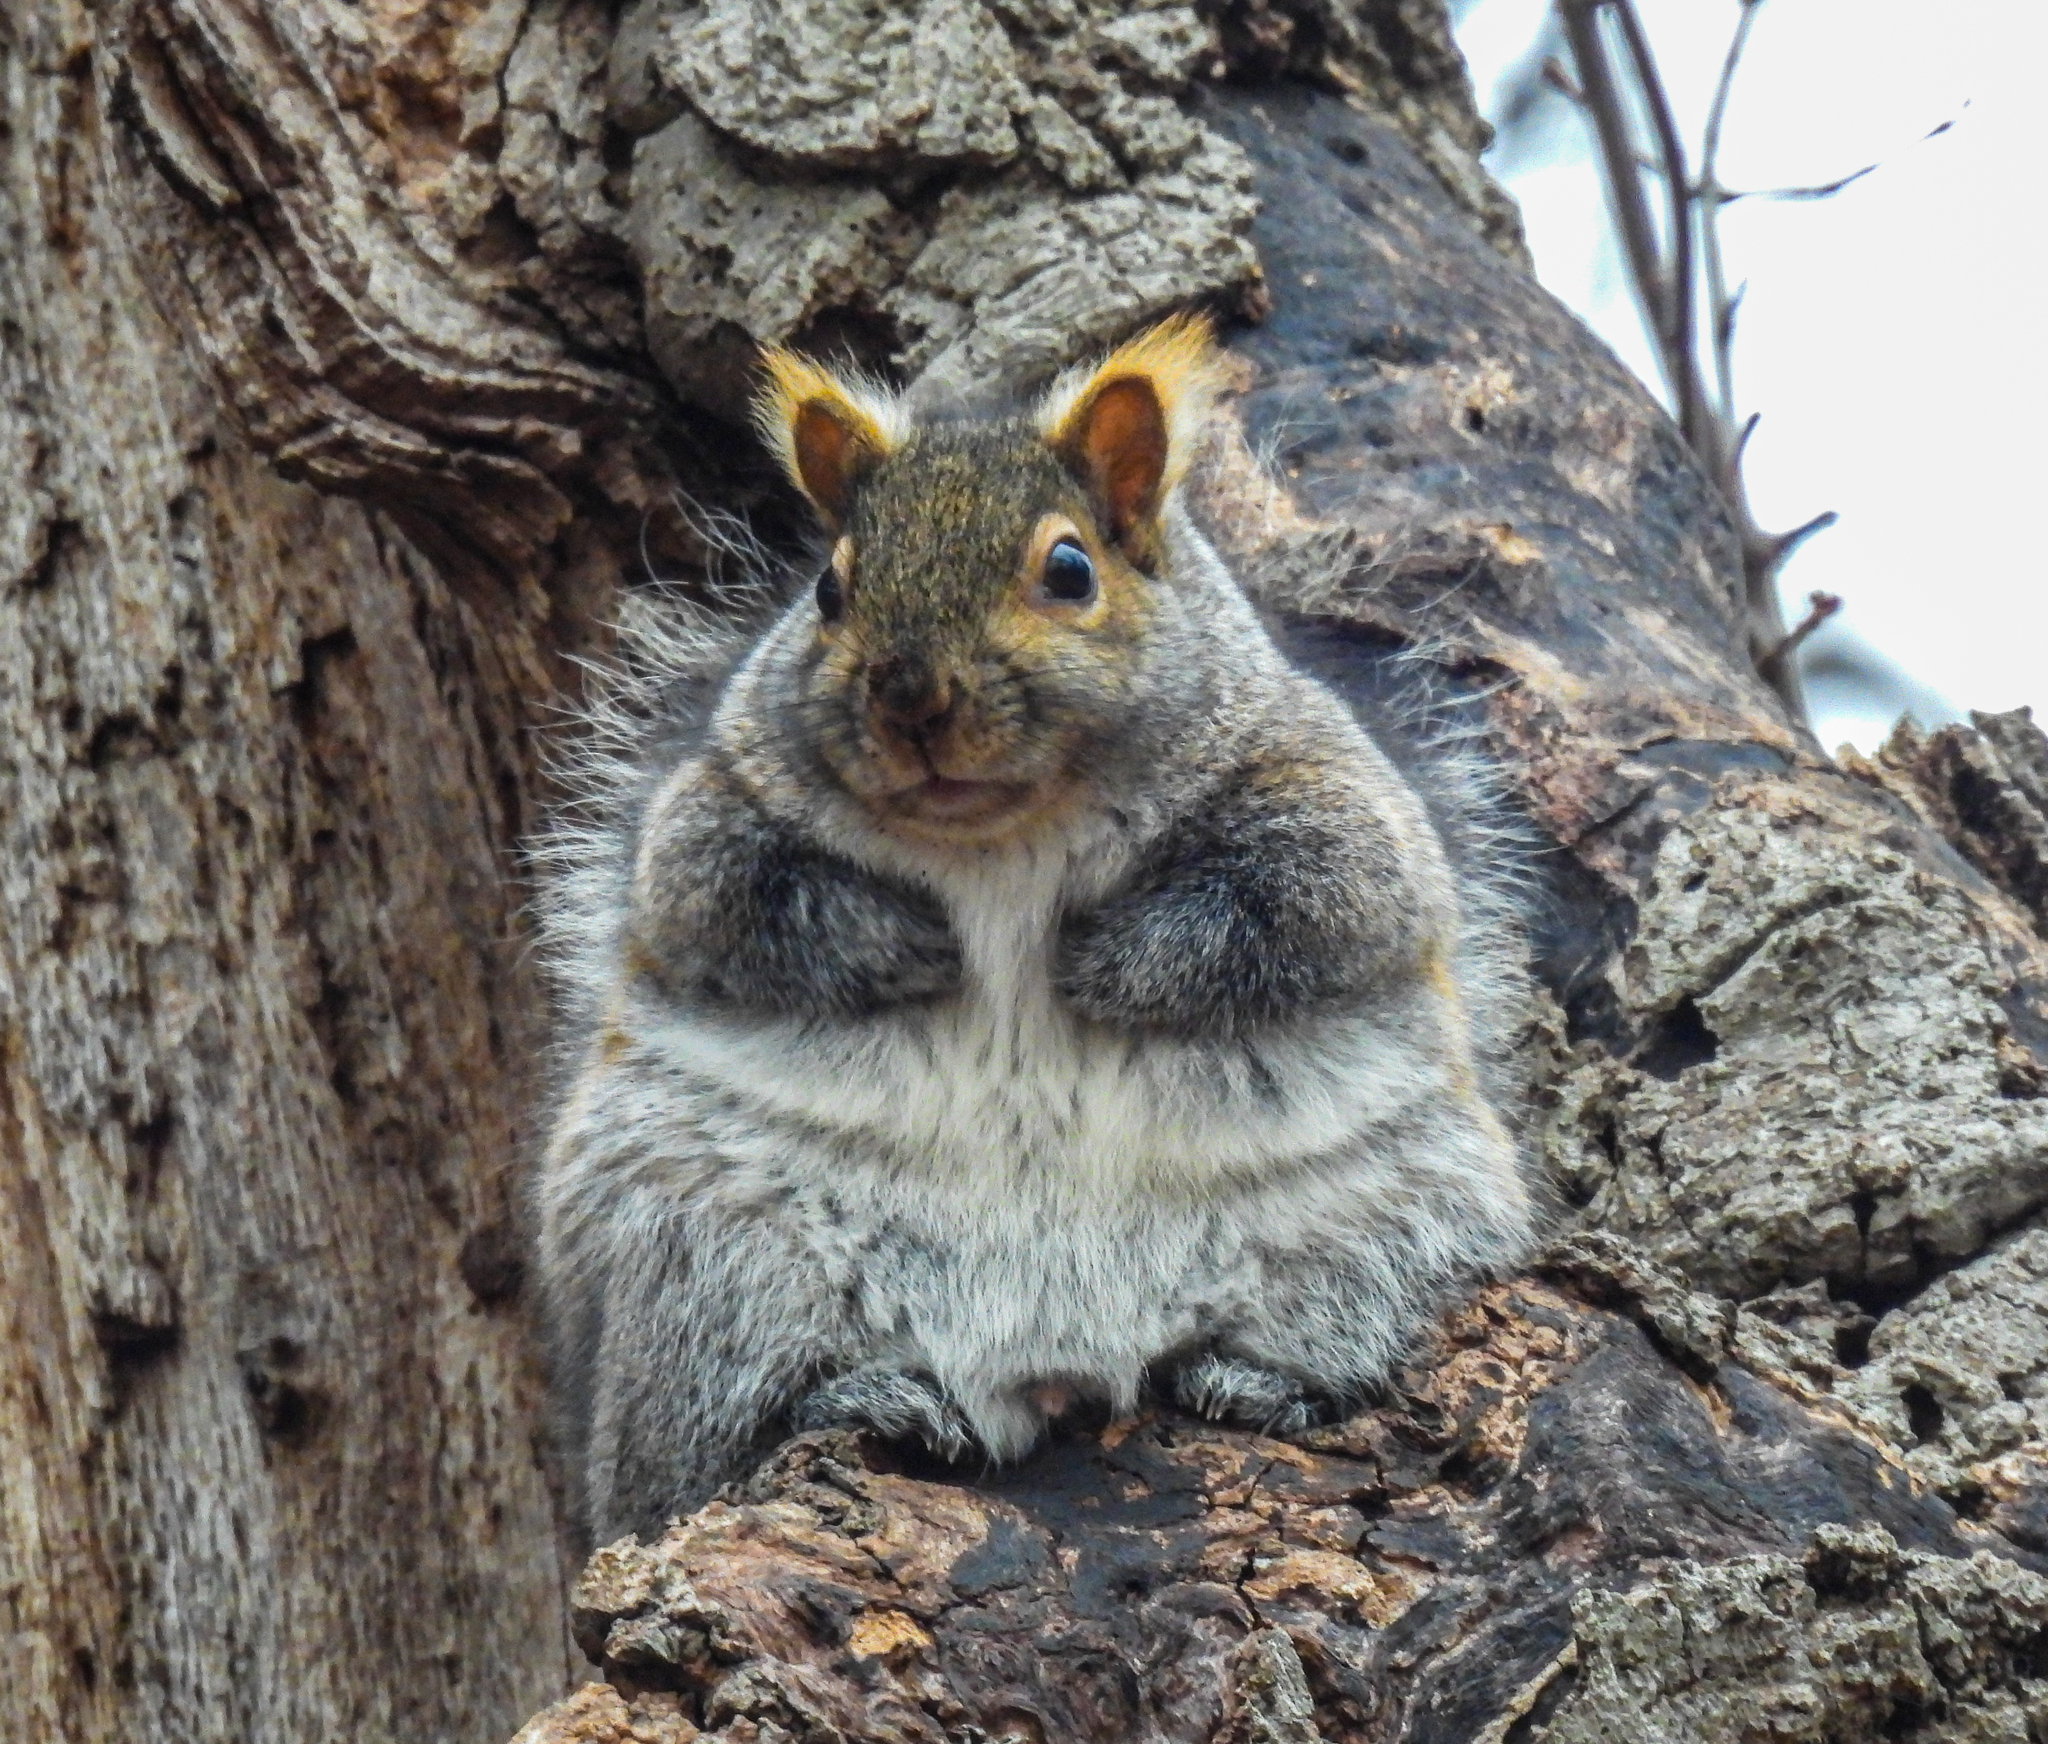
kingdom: Animalia
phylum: Chordata
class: Mammalia
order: Rodentia
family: Sciuridae
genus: Sciurus
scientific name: Sciurus carolinensis
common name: Eastern gray squirrel
